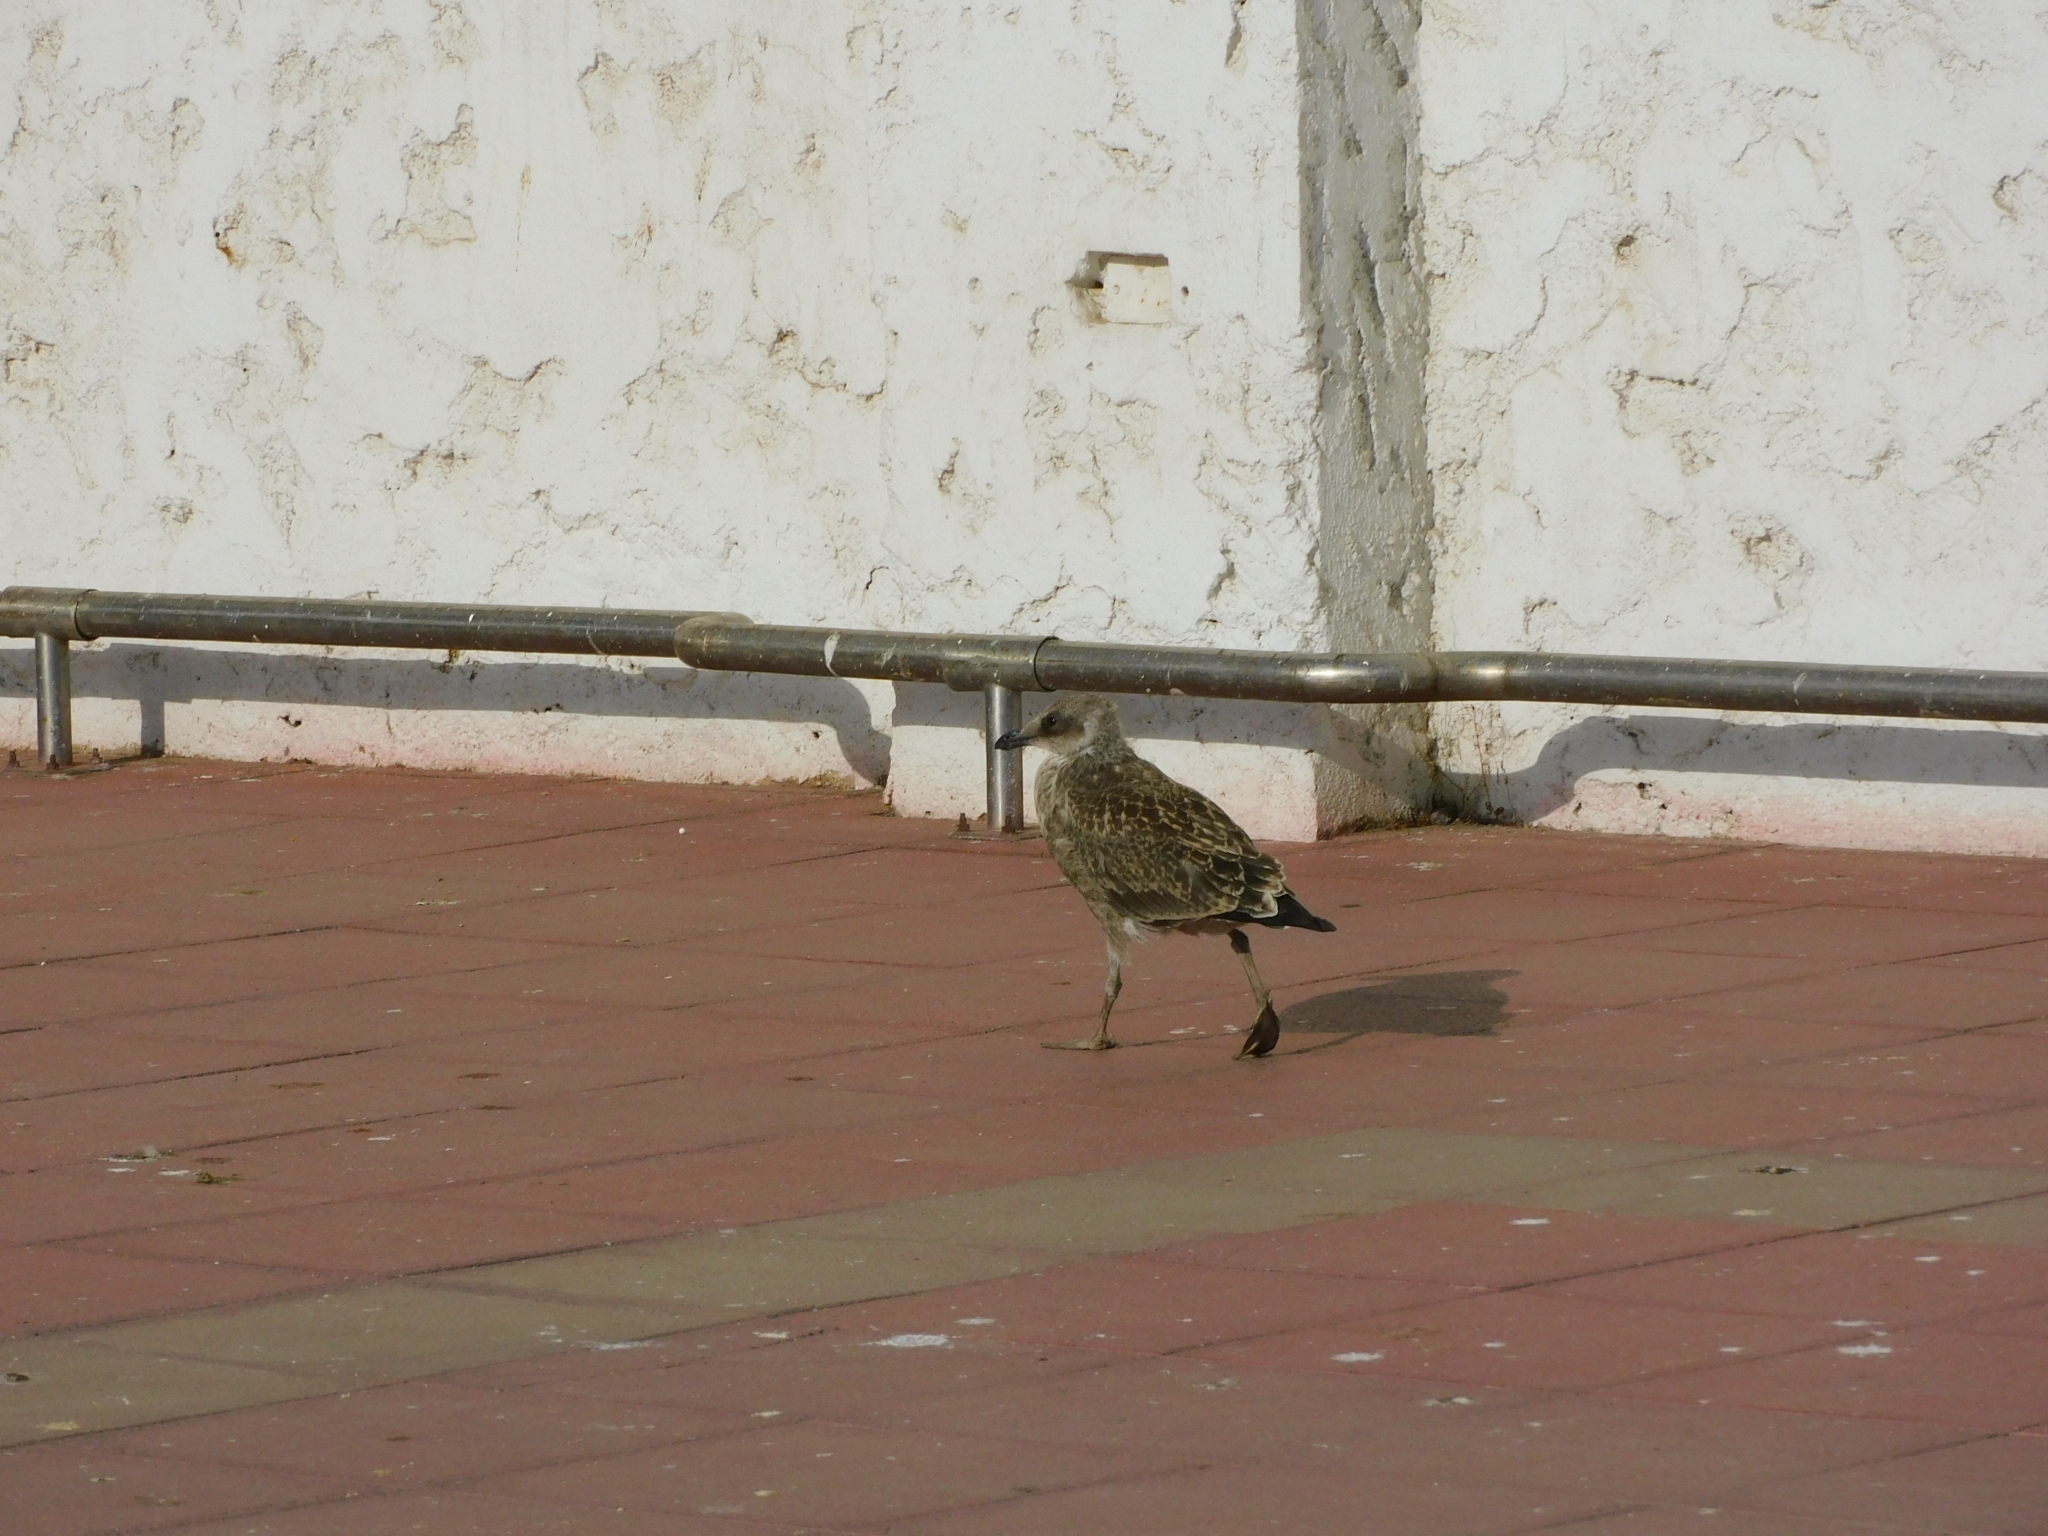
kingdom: Animalia
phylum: Chordata
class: Aves
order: Charadriiformes
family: Laridae
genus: Larus
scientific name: Larus dominicanus
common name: Kelp gull
